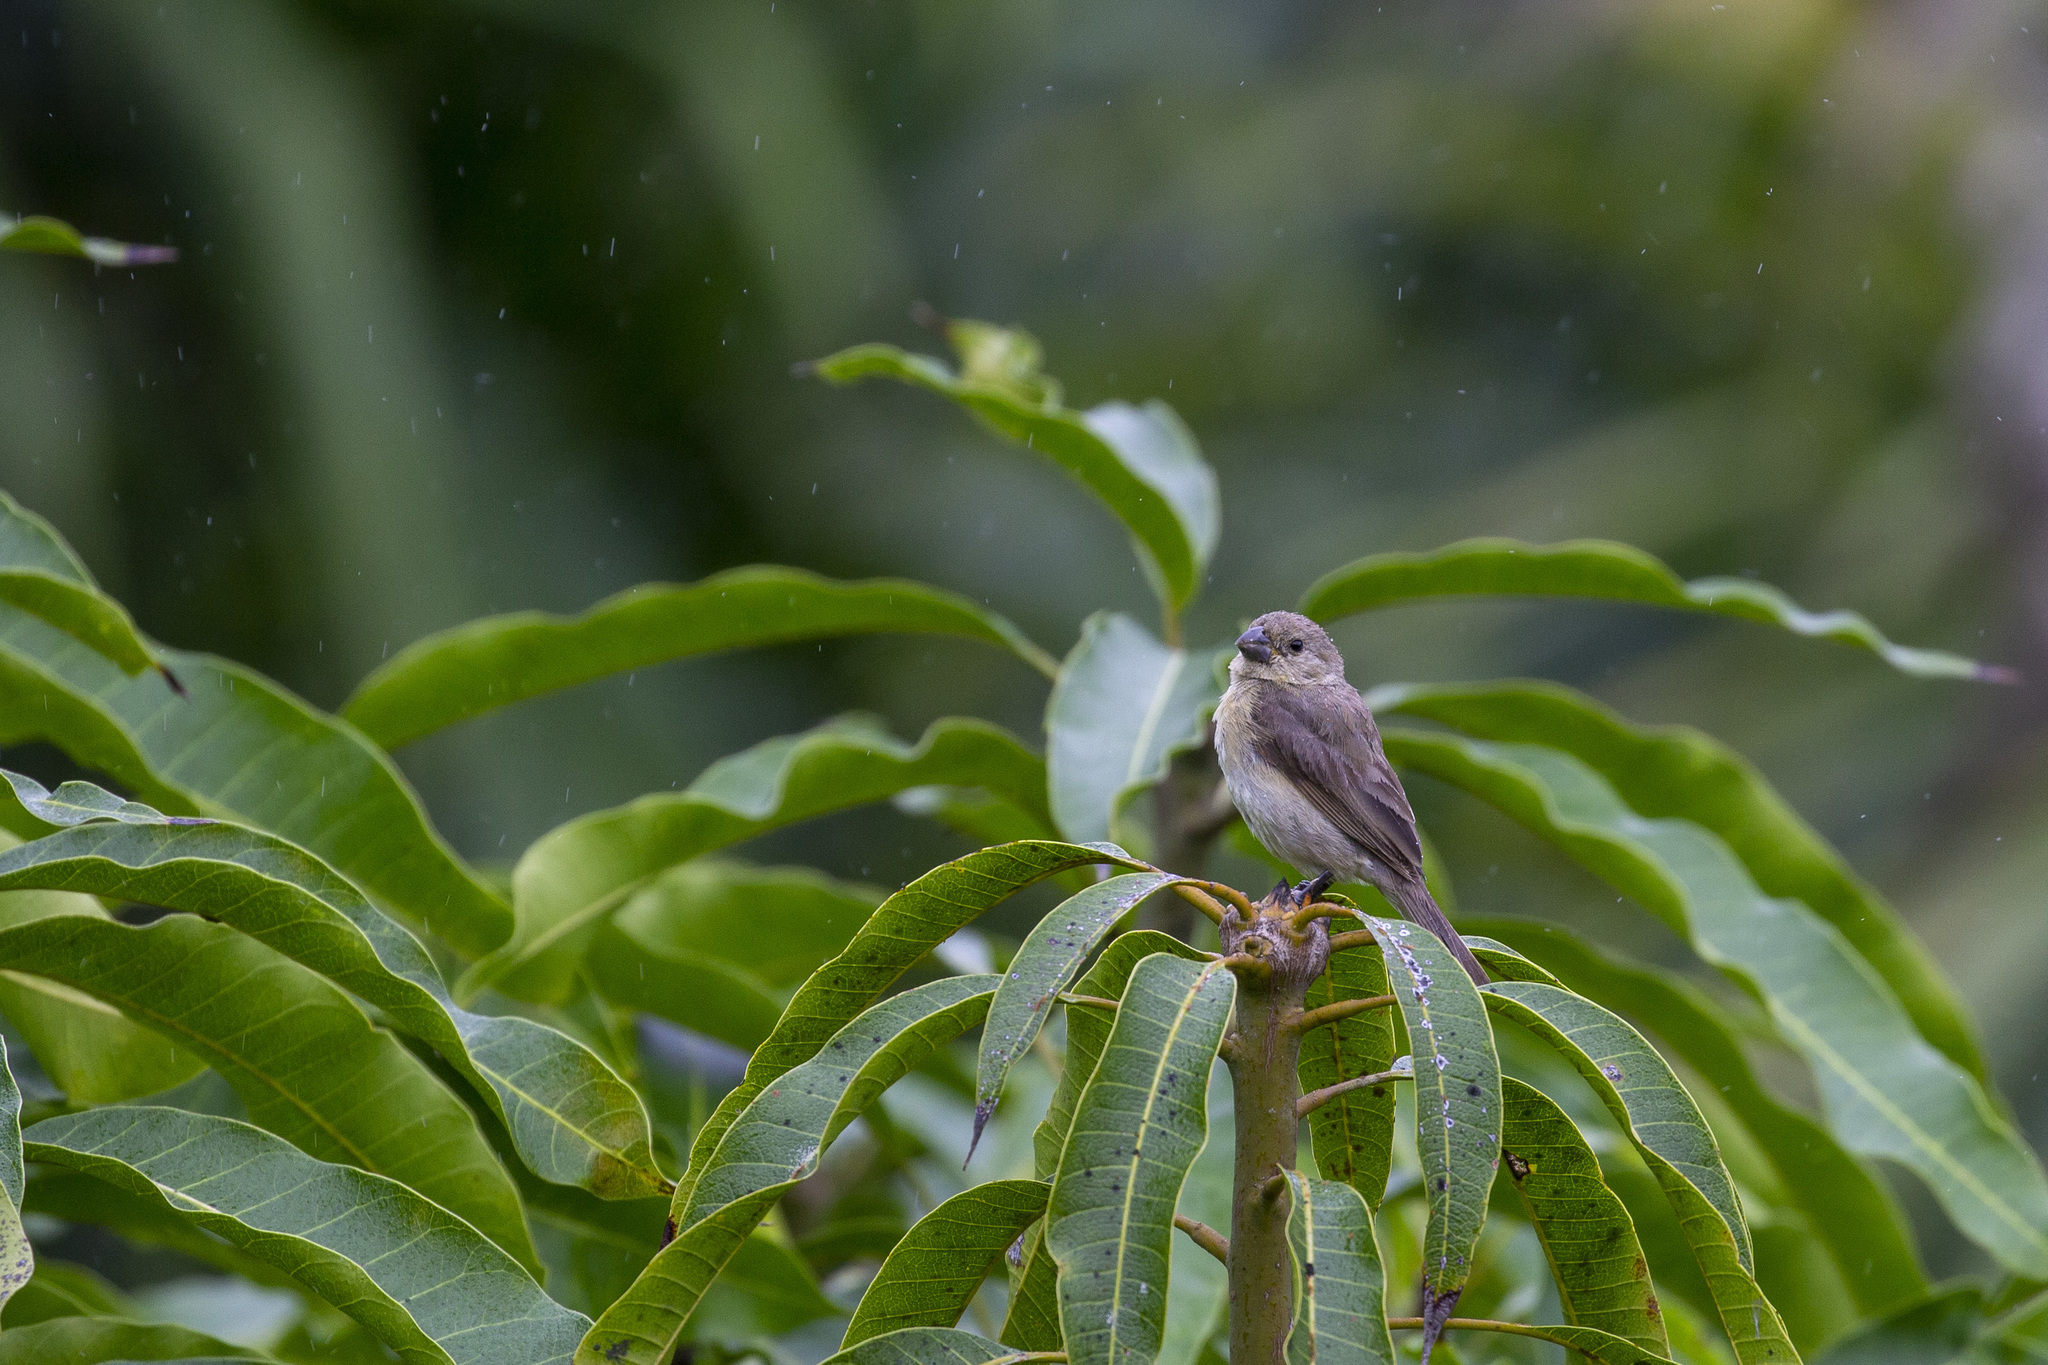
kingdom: Animalia
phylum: Chordata
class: Aves
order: Passeriformes
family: Thraupidae
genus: Sporophila
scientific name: Sporophila nigricollis
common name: Yellow-bellied seedeater
